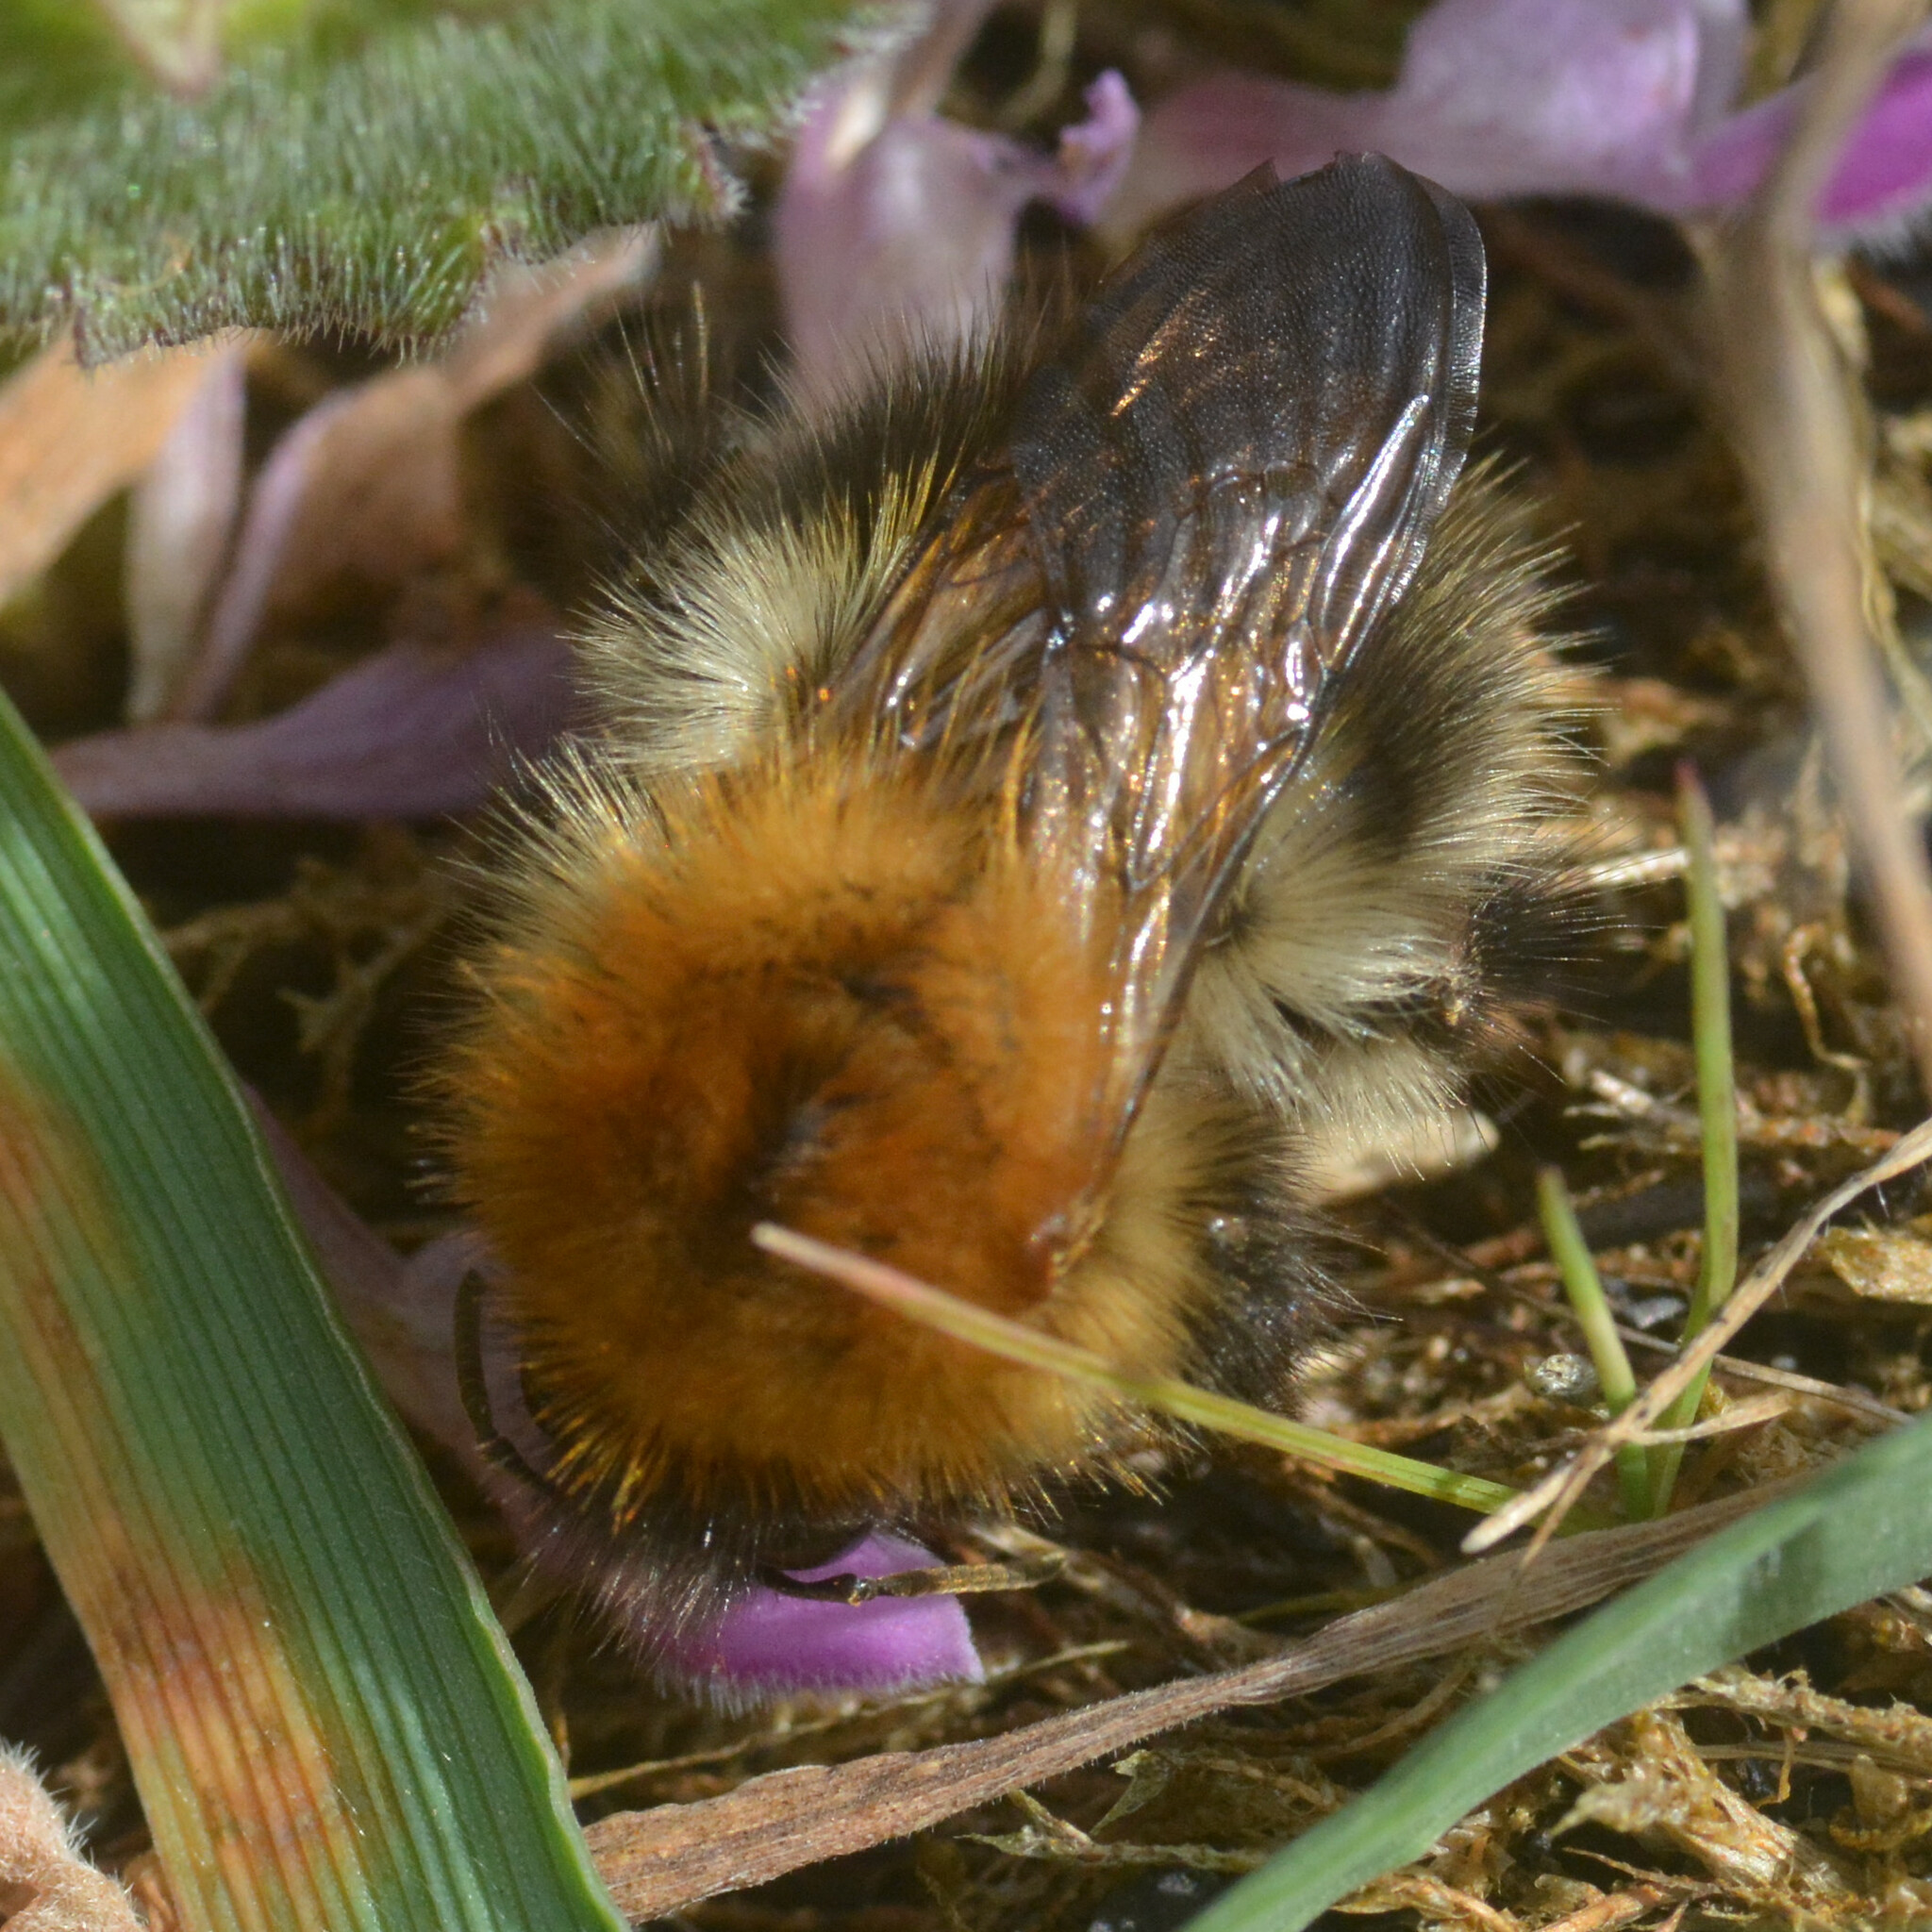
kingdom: Animalia
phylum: Arthropoda
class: Insecta
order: Hymenoptera
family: Apidae
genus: Bombus
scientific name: Bombus pascuorum
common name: Common carder bee
